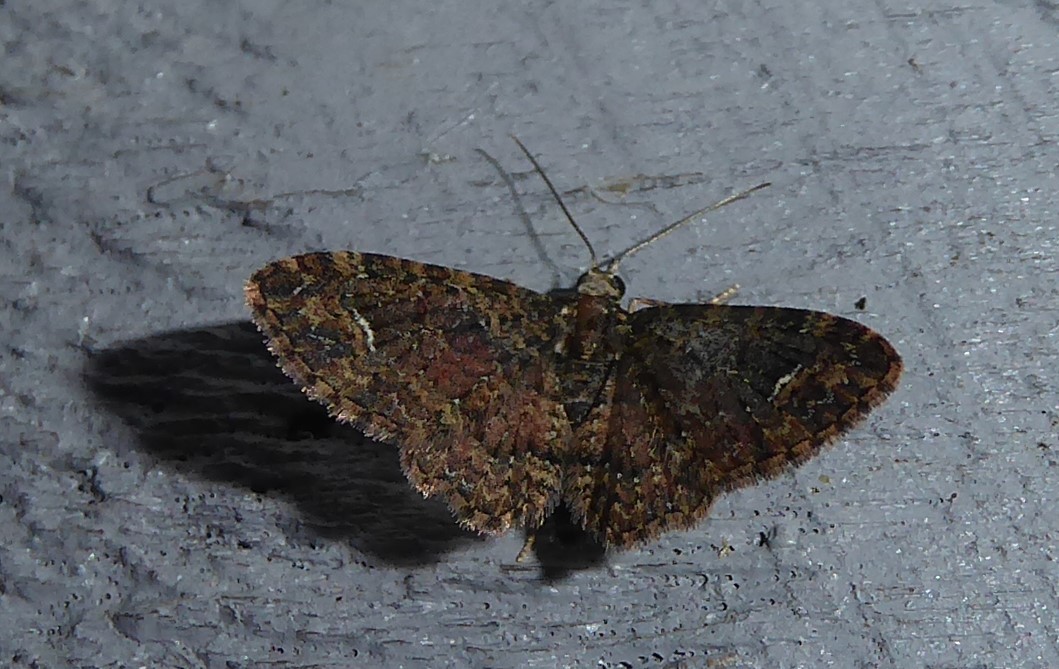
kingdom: Animalia
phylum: Arthropoda
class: Insecta
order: Lepidoptera
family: Geometridae
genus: Pasiphilodes
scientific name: Pasiphilodes testulata
